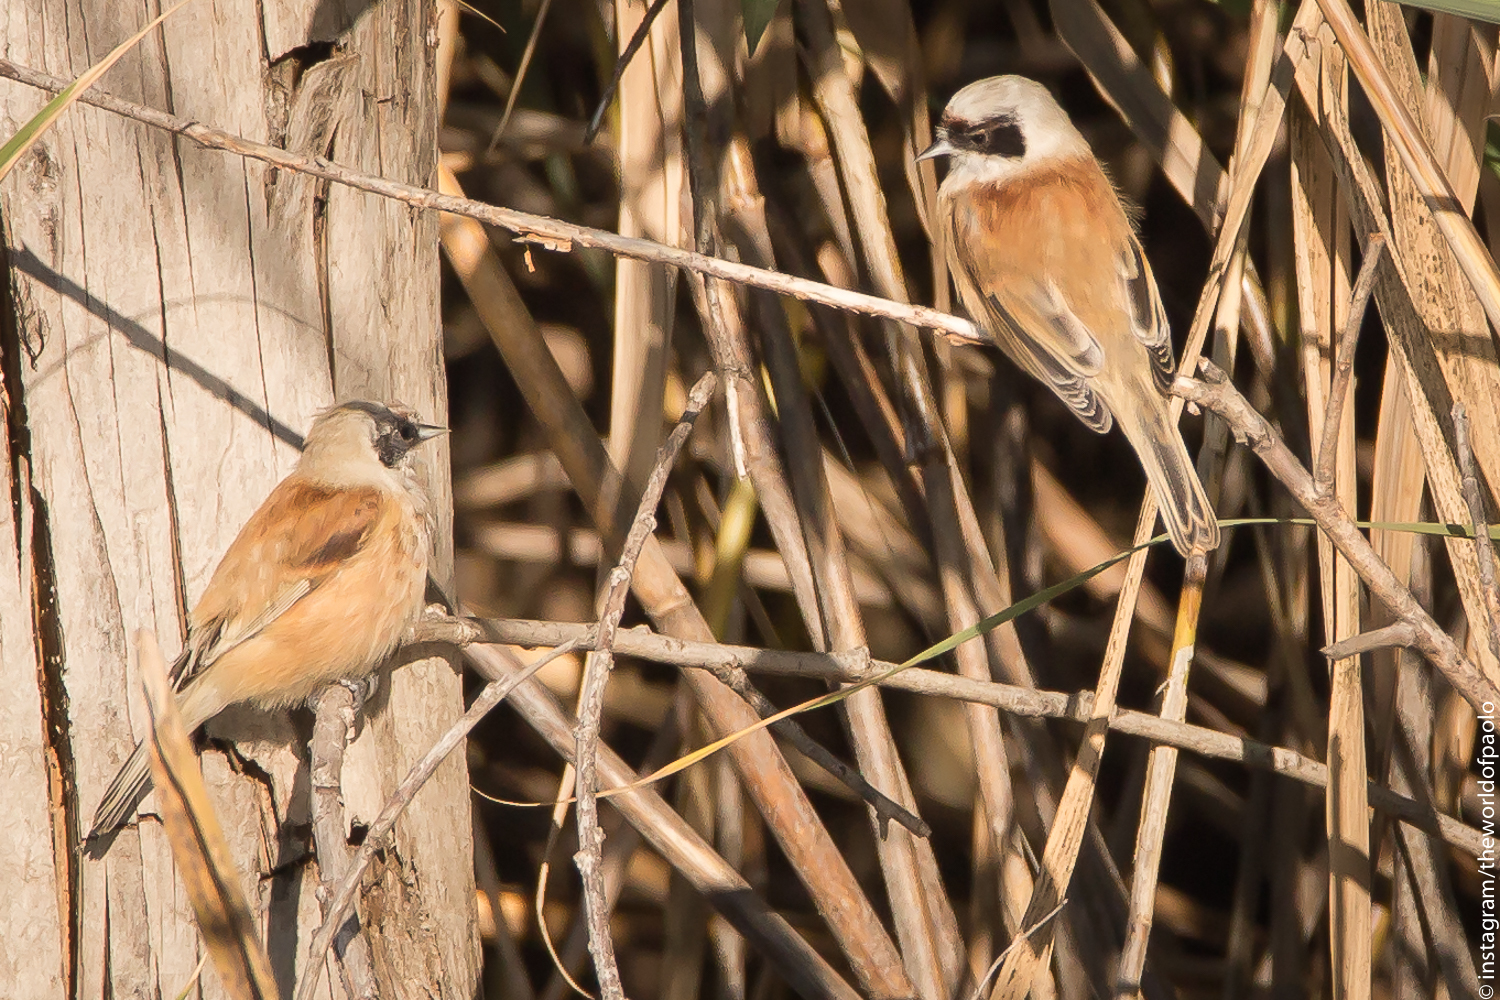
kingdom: Animalia
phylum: Chordata
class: Aves
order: Passeriformes
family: Remizidae
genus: Remiz
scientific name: Remiz pendulinus
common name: Eurasian penduline tit
